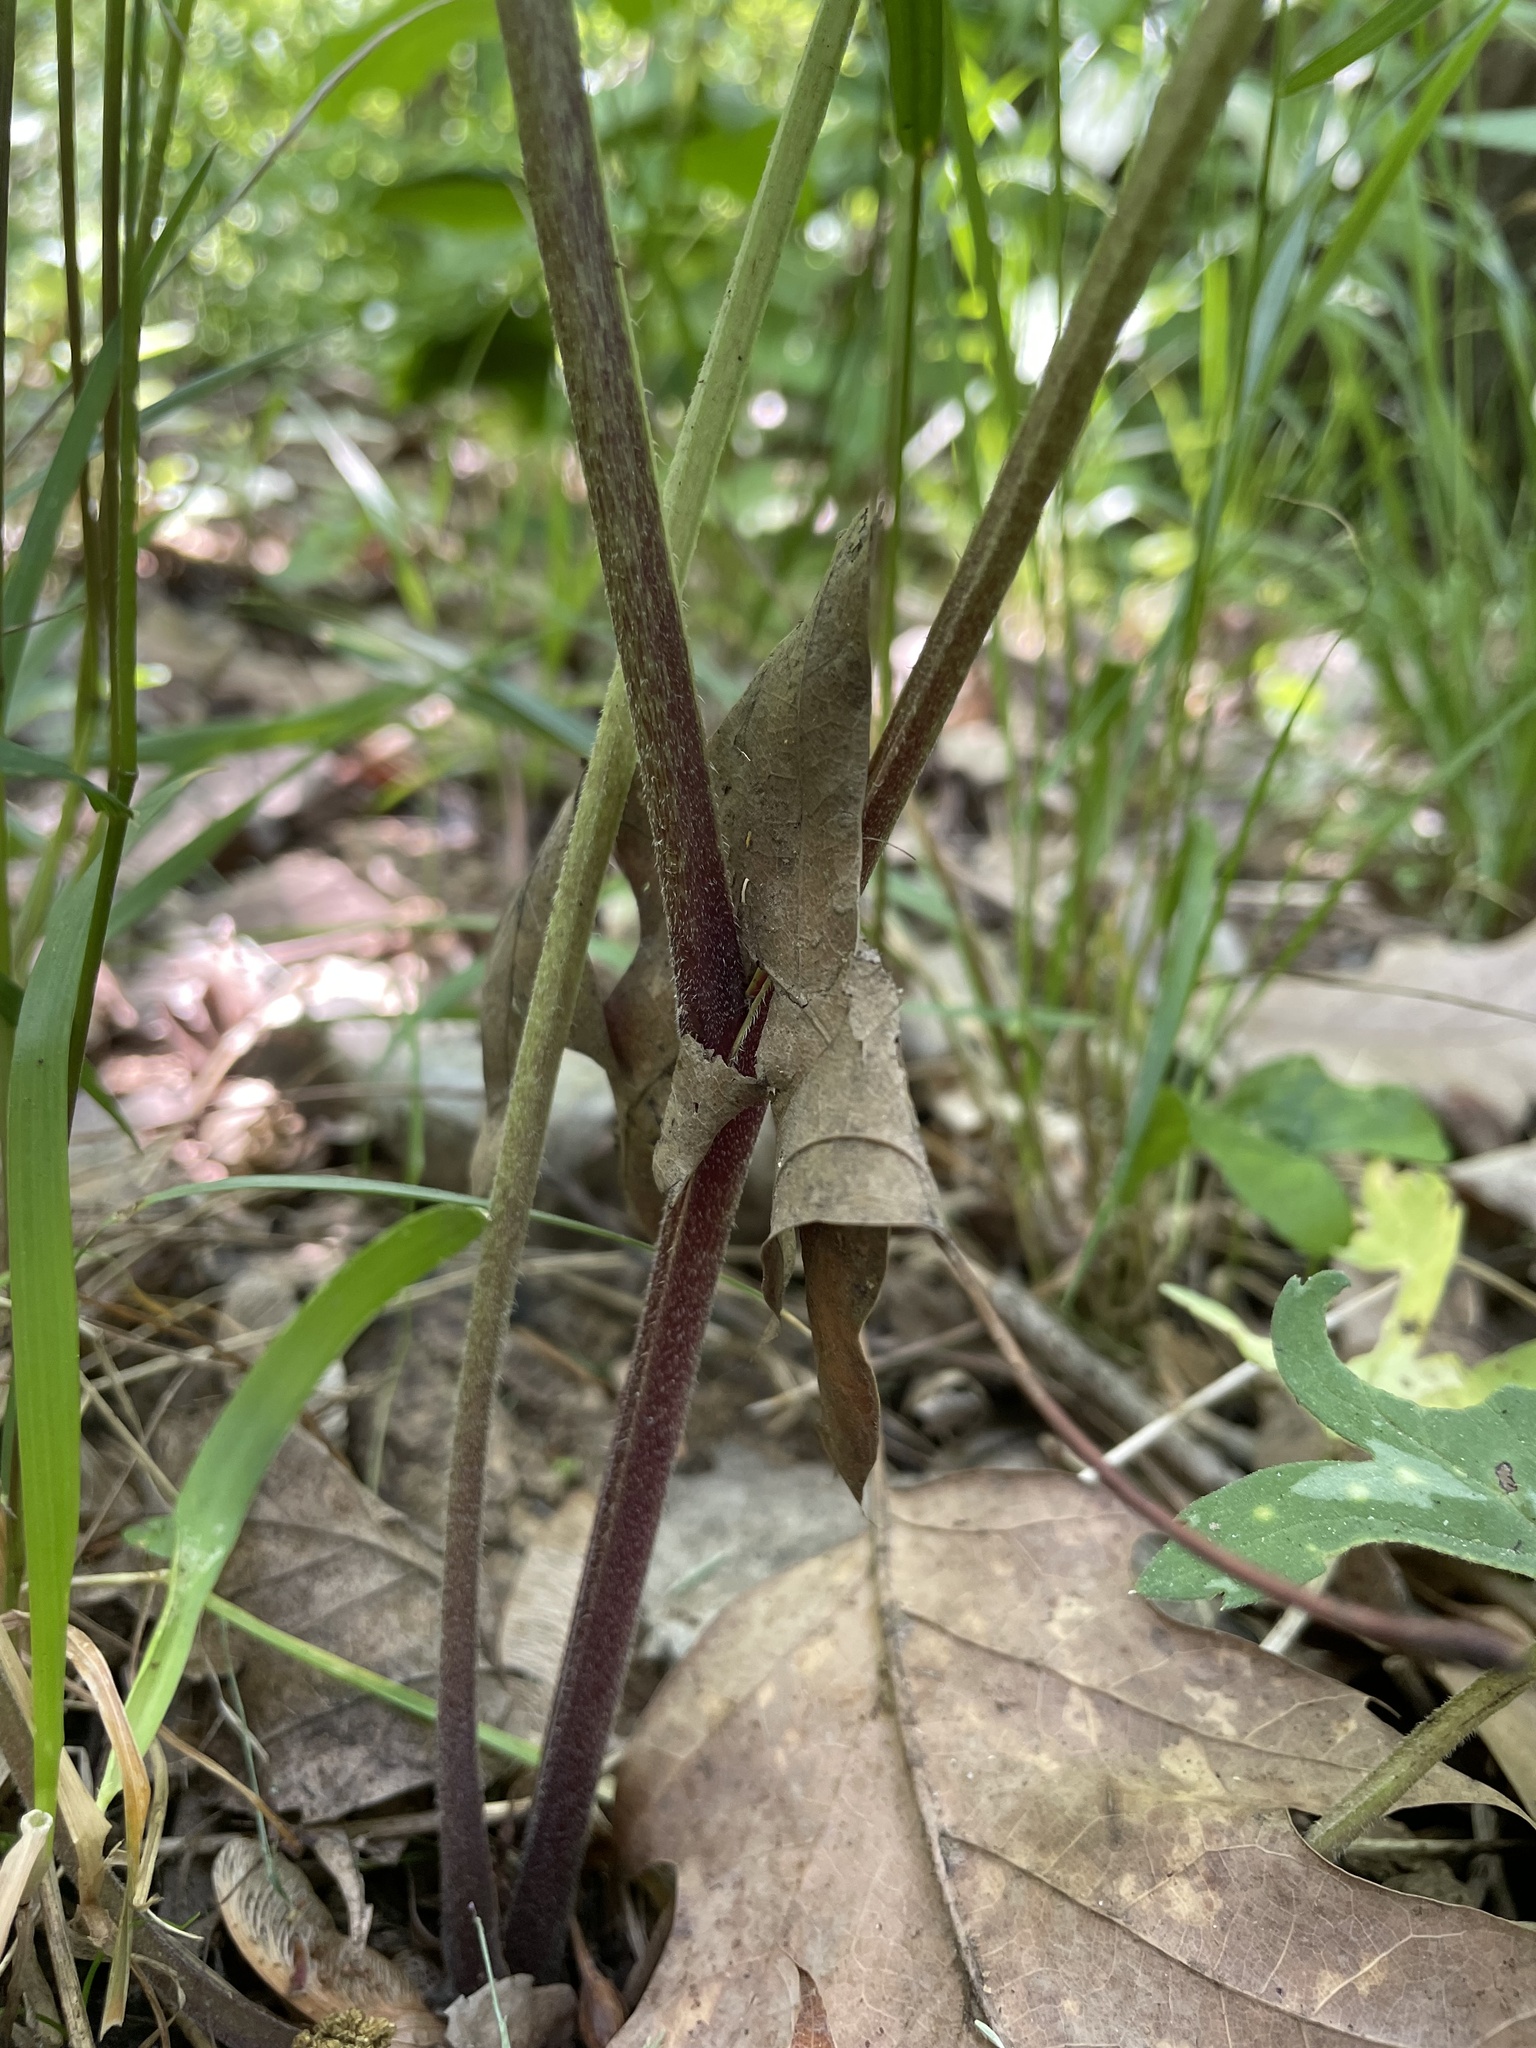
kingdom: Plantae
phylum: Tracheophyta
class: Magnoliopsida
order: Boraginales
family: Hydrophyllaceae
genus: Hydrophyllum
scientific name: Hydrophyllum virginianum
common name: Virginia waterleaf
